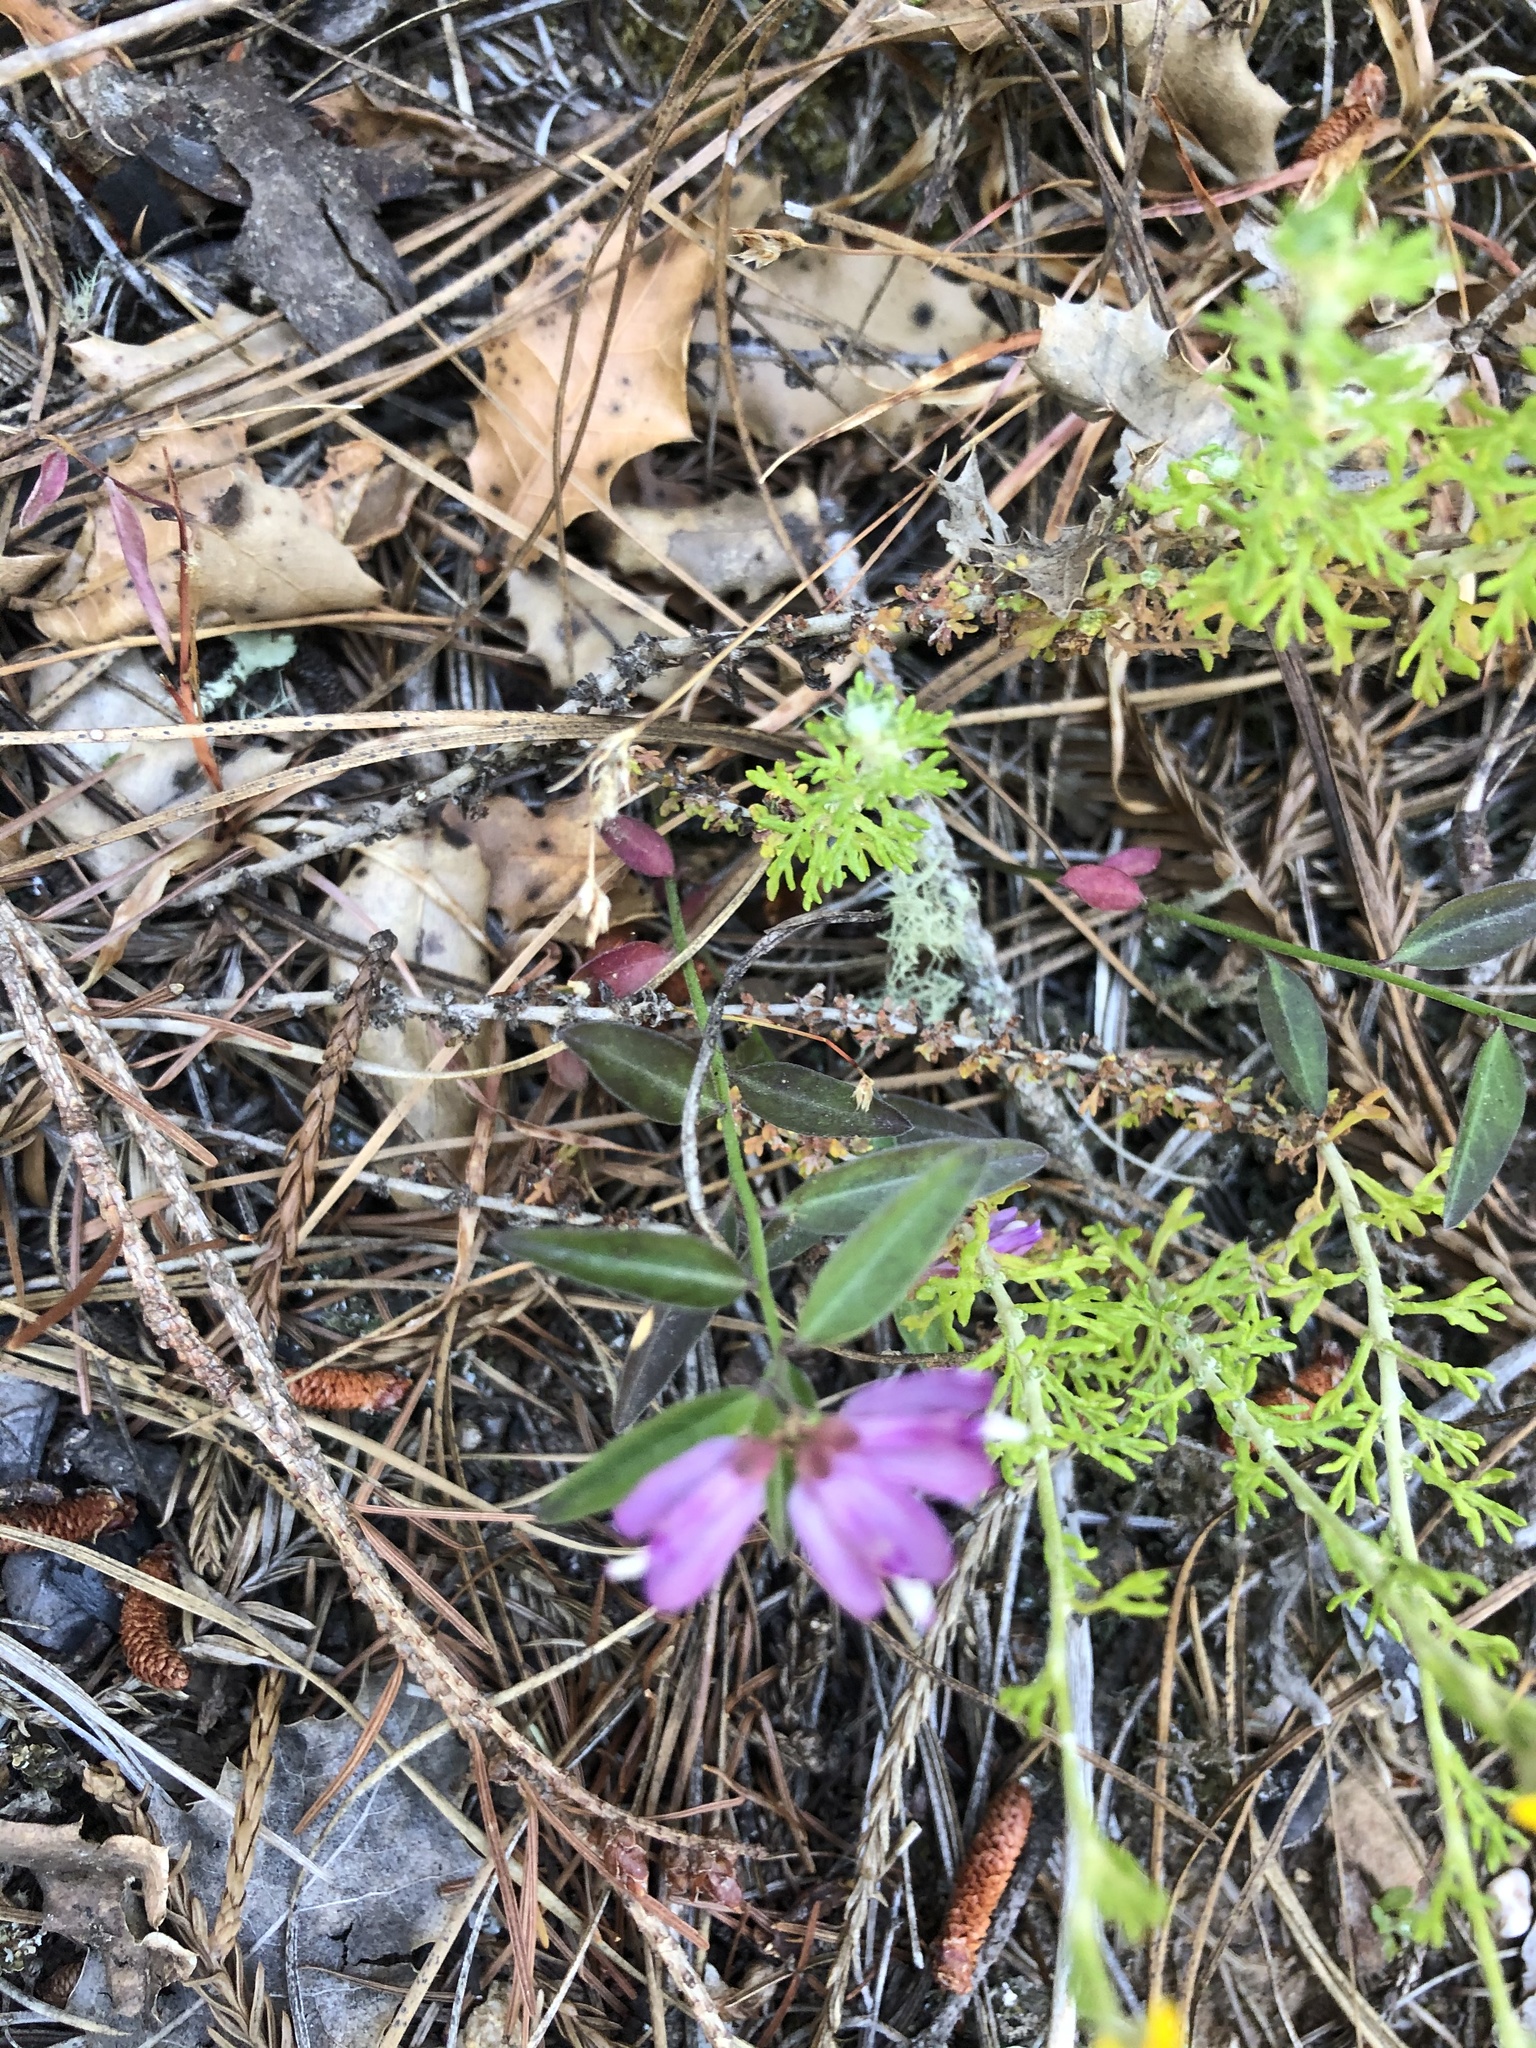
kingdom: Plantae
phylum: Tracheophyta
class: Magnoliopsida
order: Fabales
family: Polygalaceae
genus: Rhinotropis
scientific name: Rhinotropis californica
